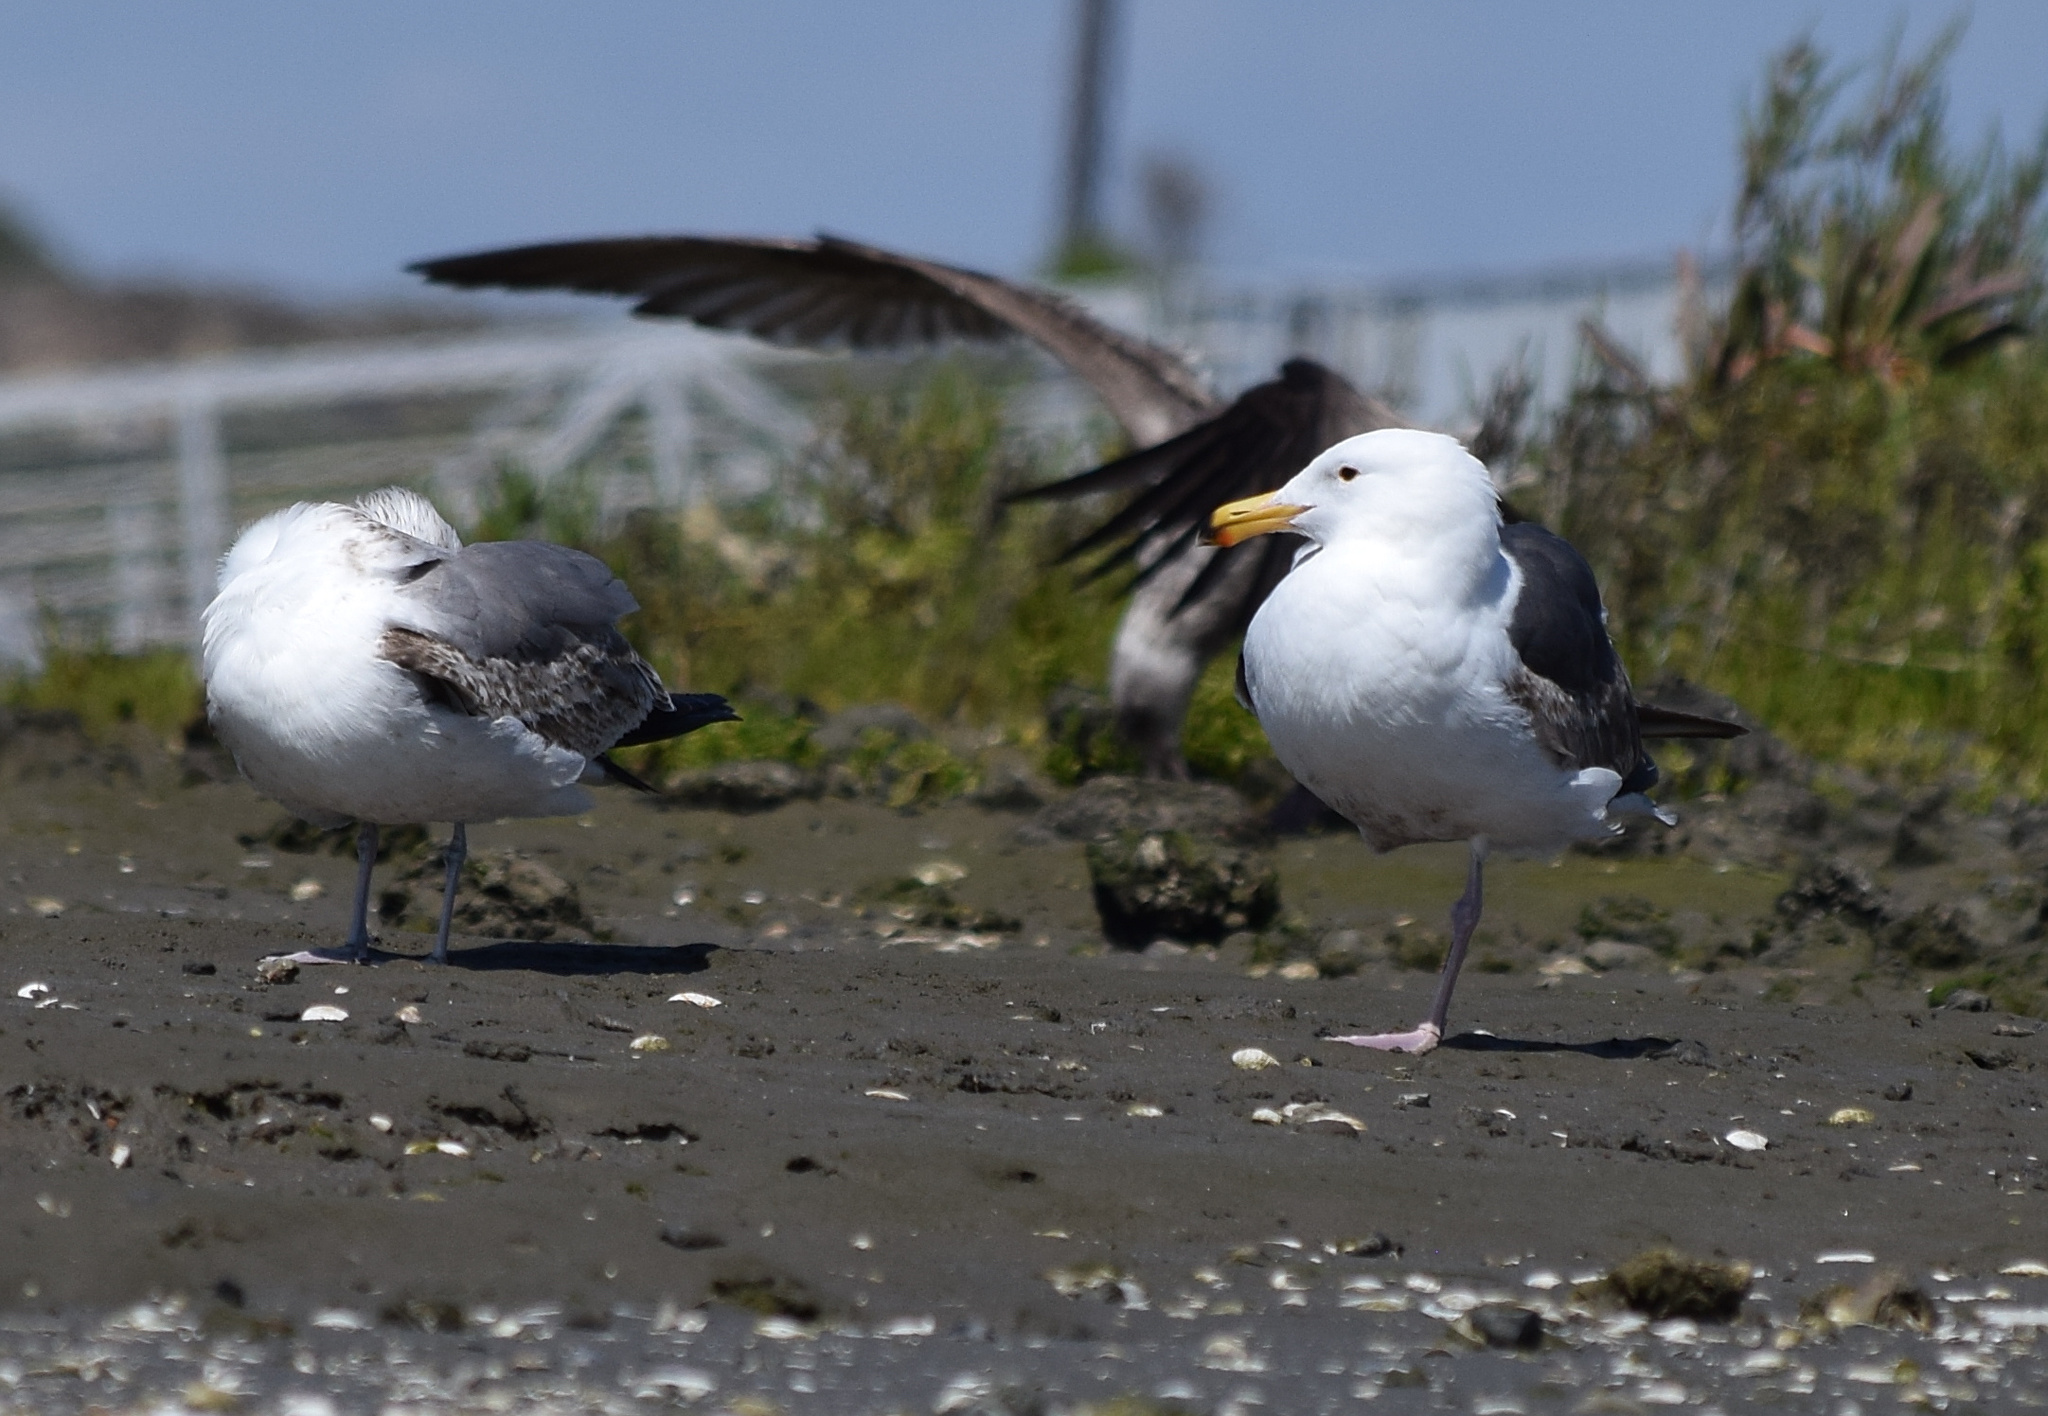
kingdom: Animalia
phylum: Chordata
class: Aves
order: Charadriiformes
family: Laridae
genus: Larus
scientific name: Larus occidentalis
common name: Western gull
